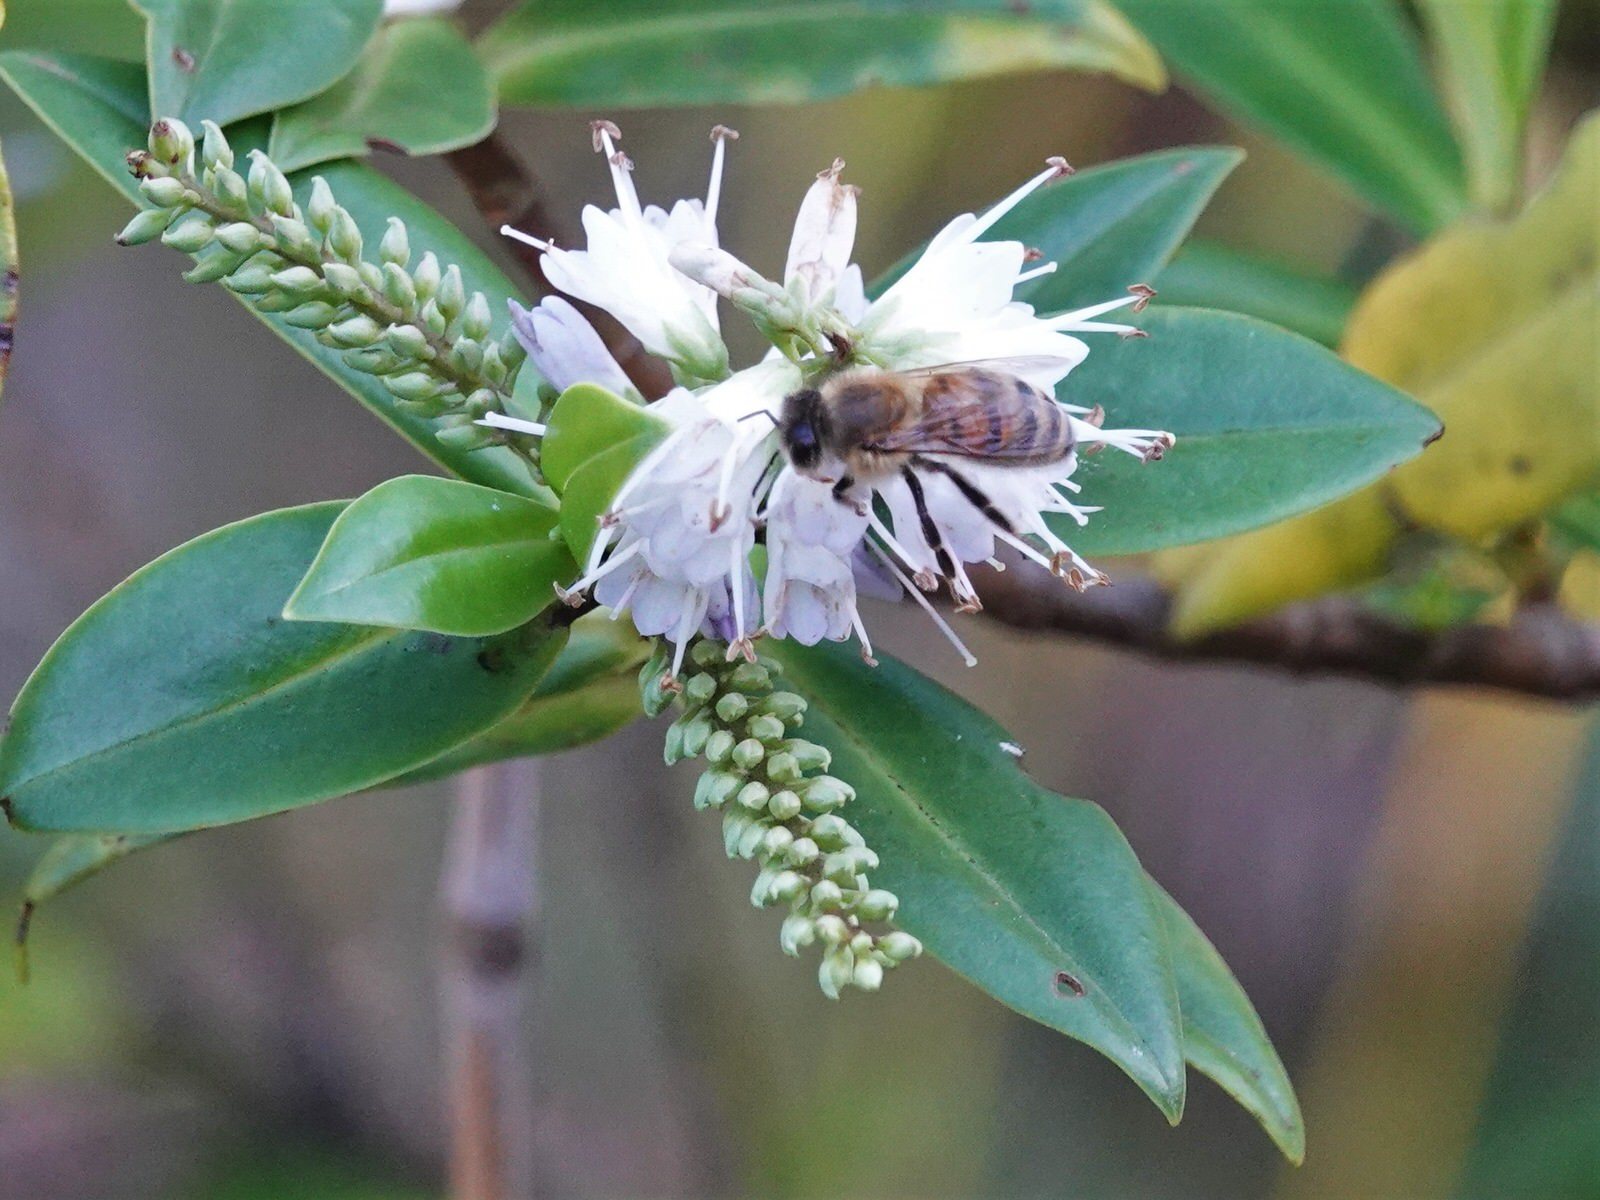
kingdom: Animalia
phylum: Arthropoda
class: Insecta
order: Hymenoptera
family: Apidae
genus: Apis
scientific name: Apis mellifera
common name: Honey bee
